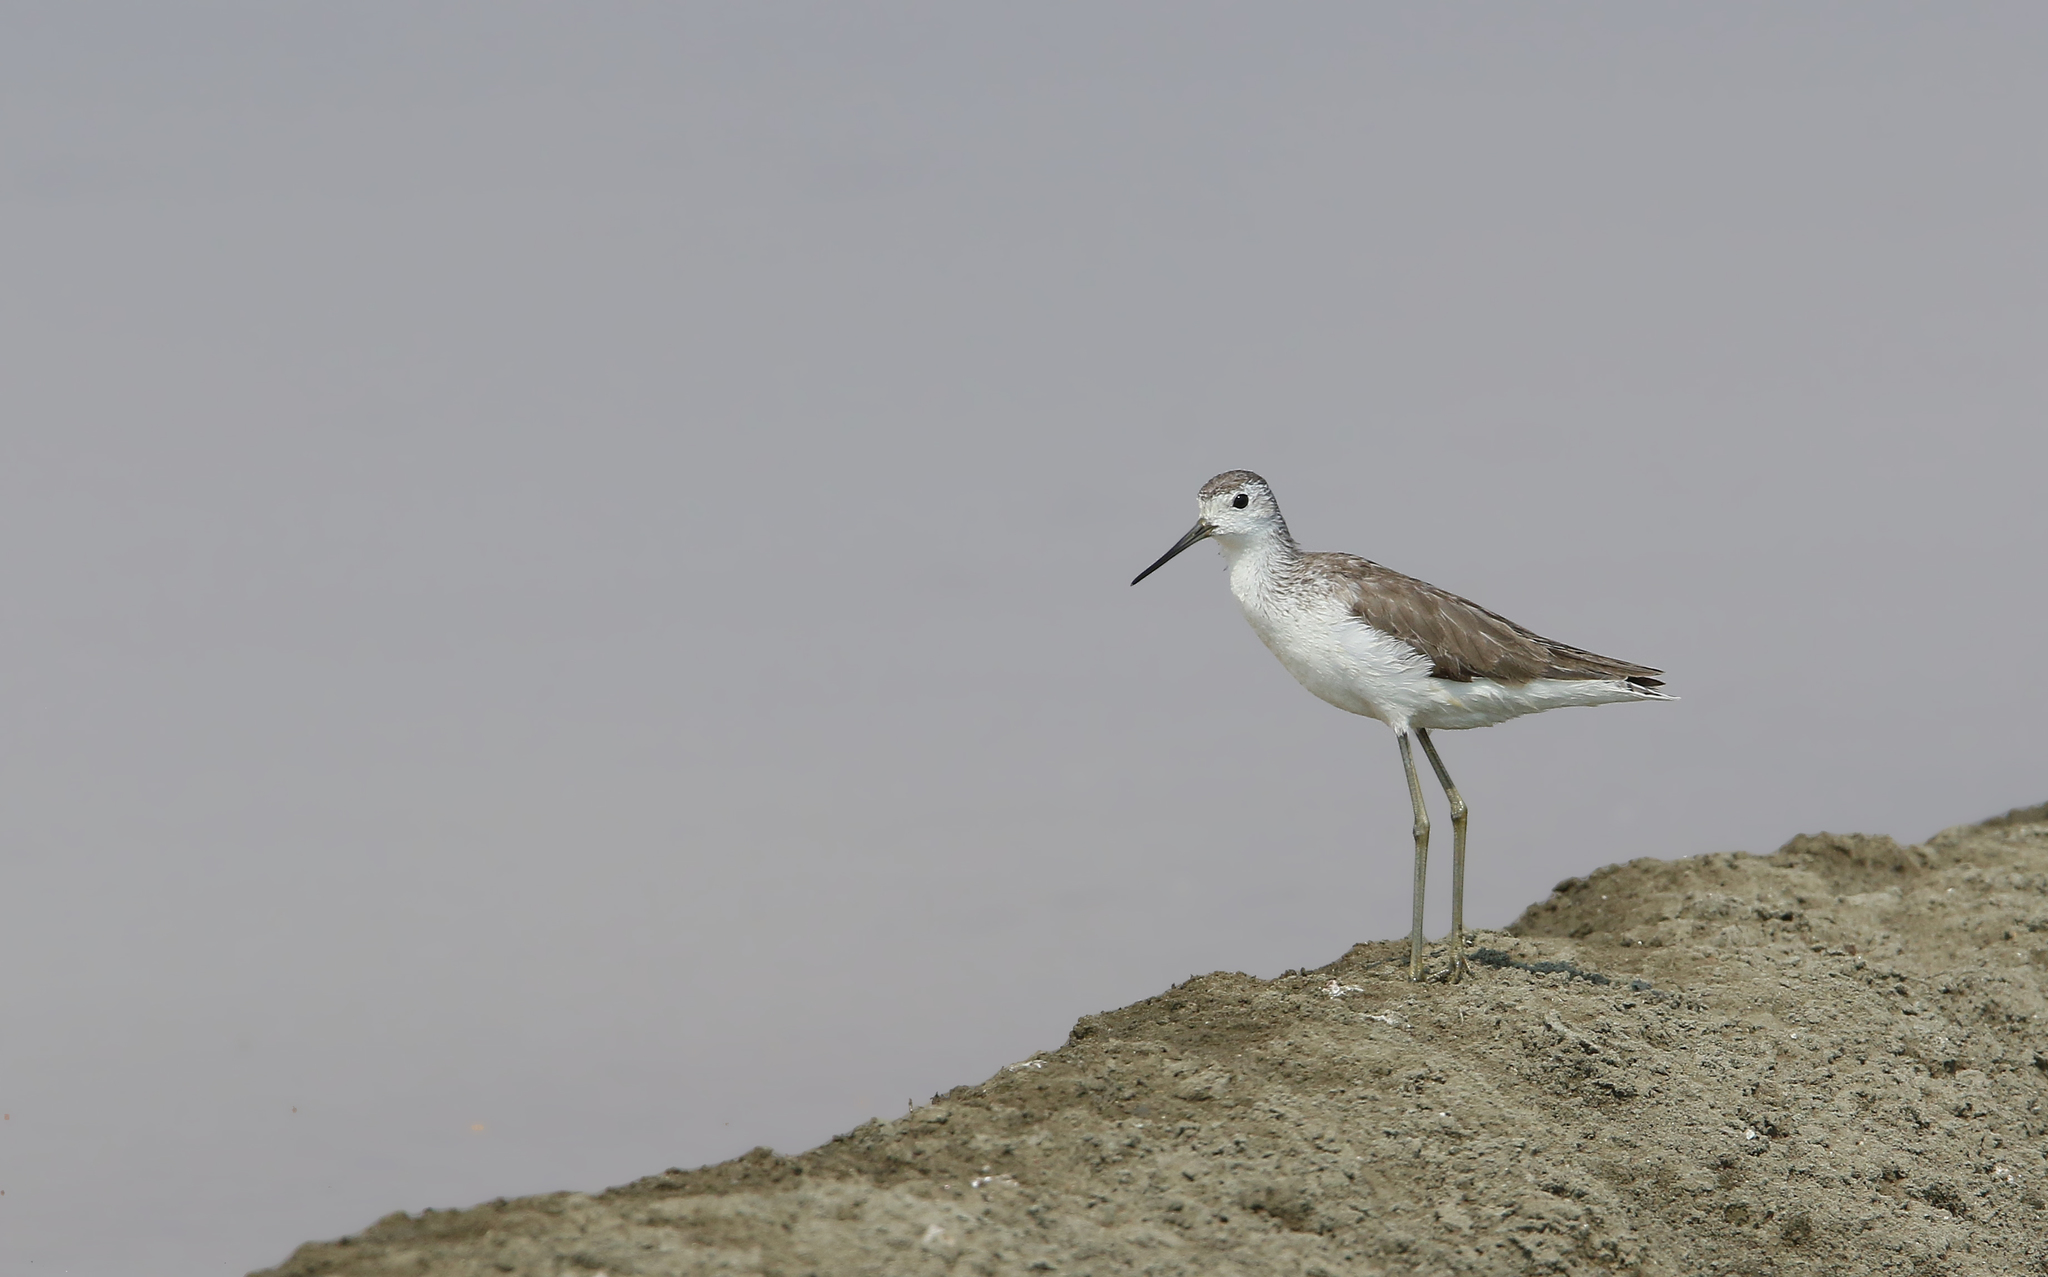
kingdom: Animalia
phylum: Chordata
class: Aves
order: Charadriiformes
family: Scolopacidae
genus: Tringa
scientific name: Tringa stagnatilis
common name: Marsh sandpiper
